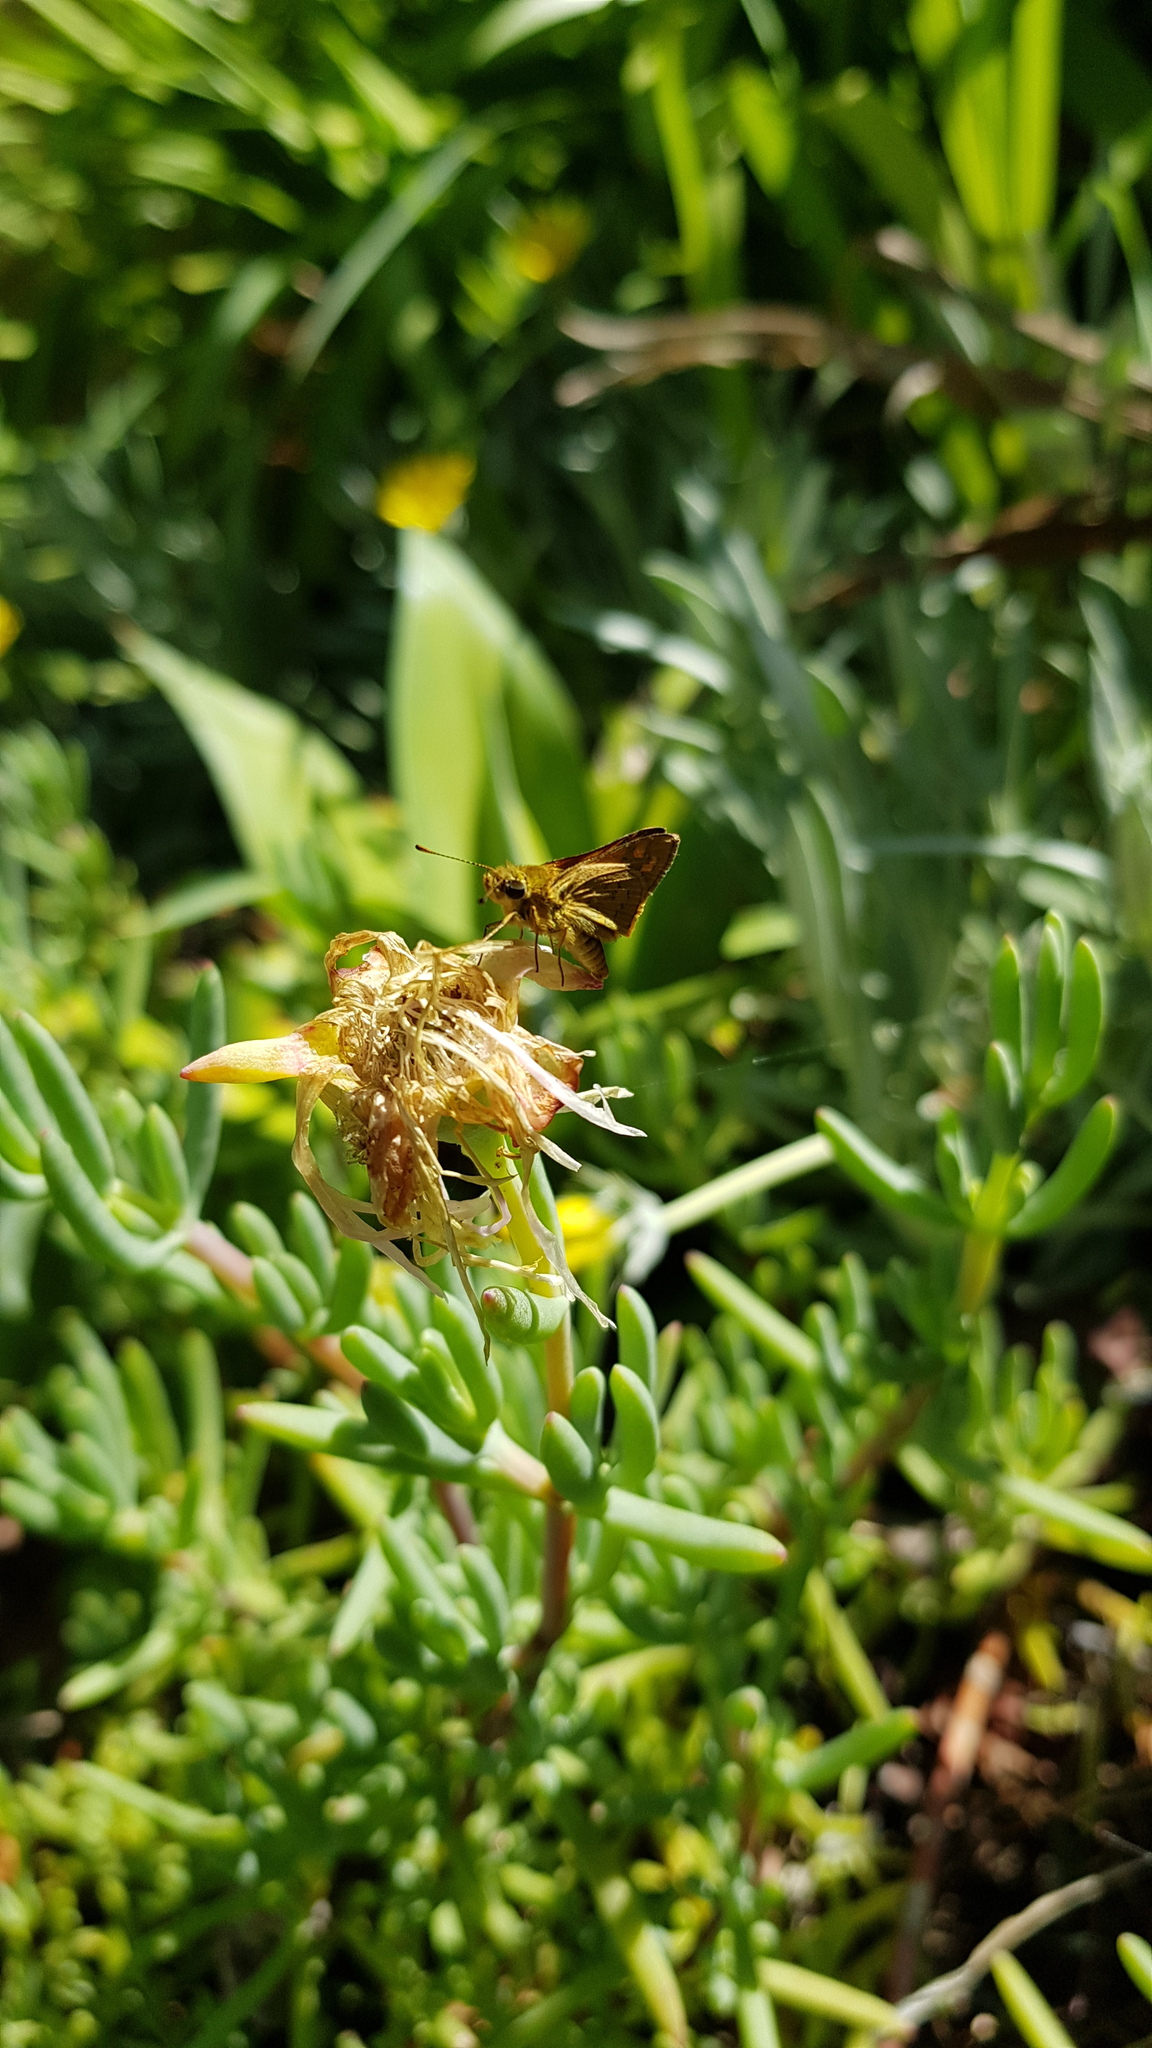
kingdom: Animalia
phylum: Arthropoda
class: Insecta
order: Lepidoptera
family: Hesperiidae
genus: Ocybadistes
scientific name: Ocybadistes walkeri
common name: Yellow-banded dart
